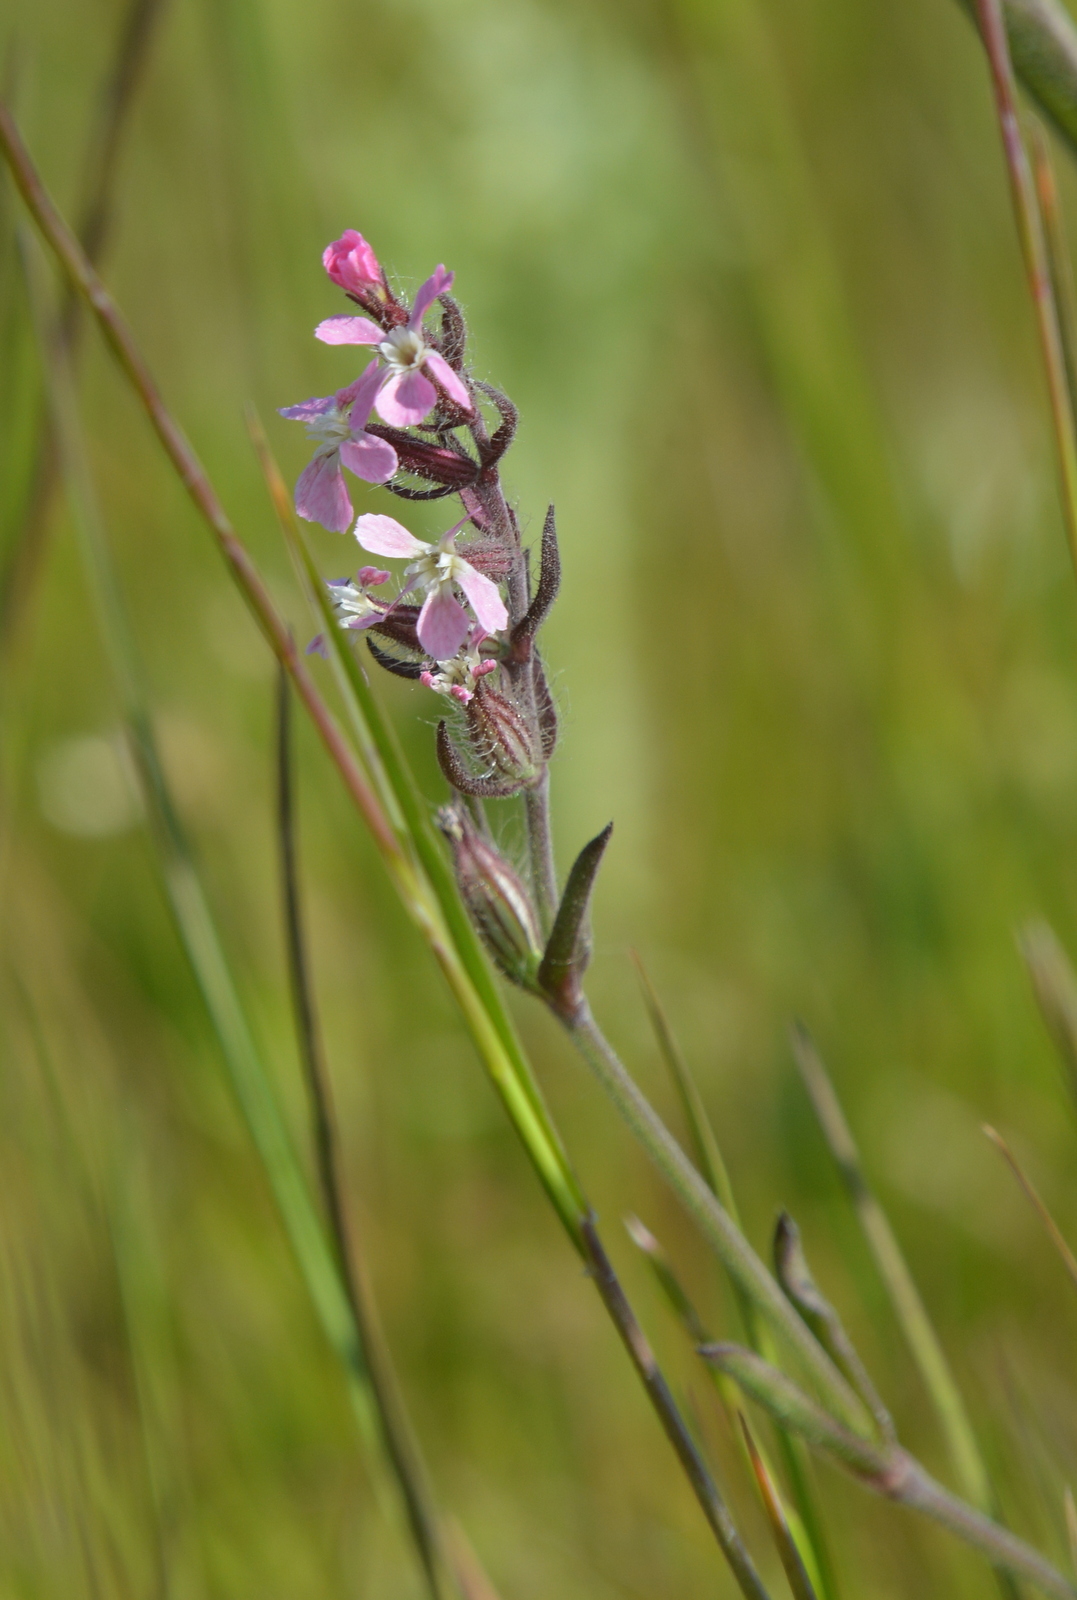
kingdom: Plantae
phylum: Tracheophyta
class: Magnoliopsida
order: Caryophyllales
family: Caryophyllaceae
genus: Silene
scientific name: Silene gallica
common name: Small-flowered catchfly
